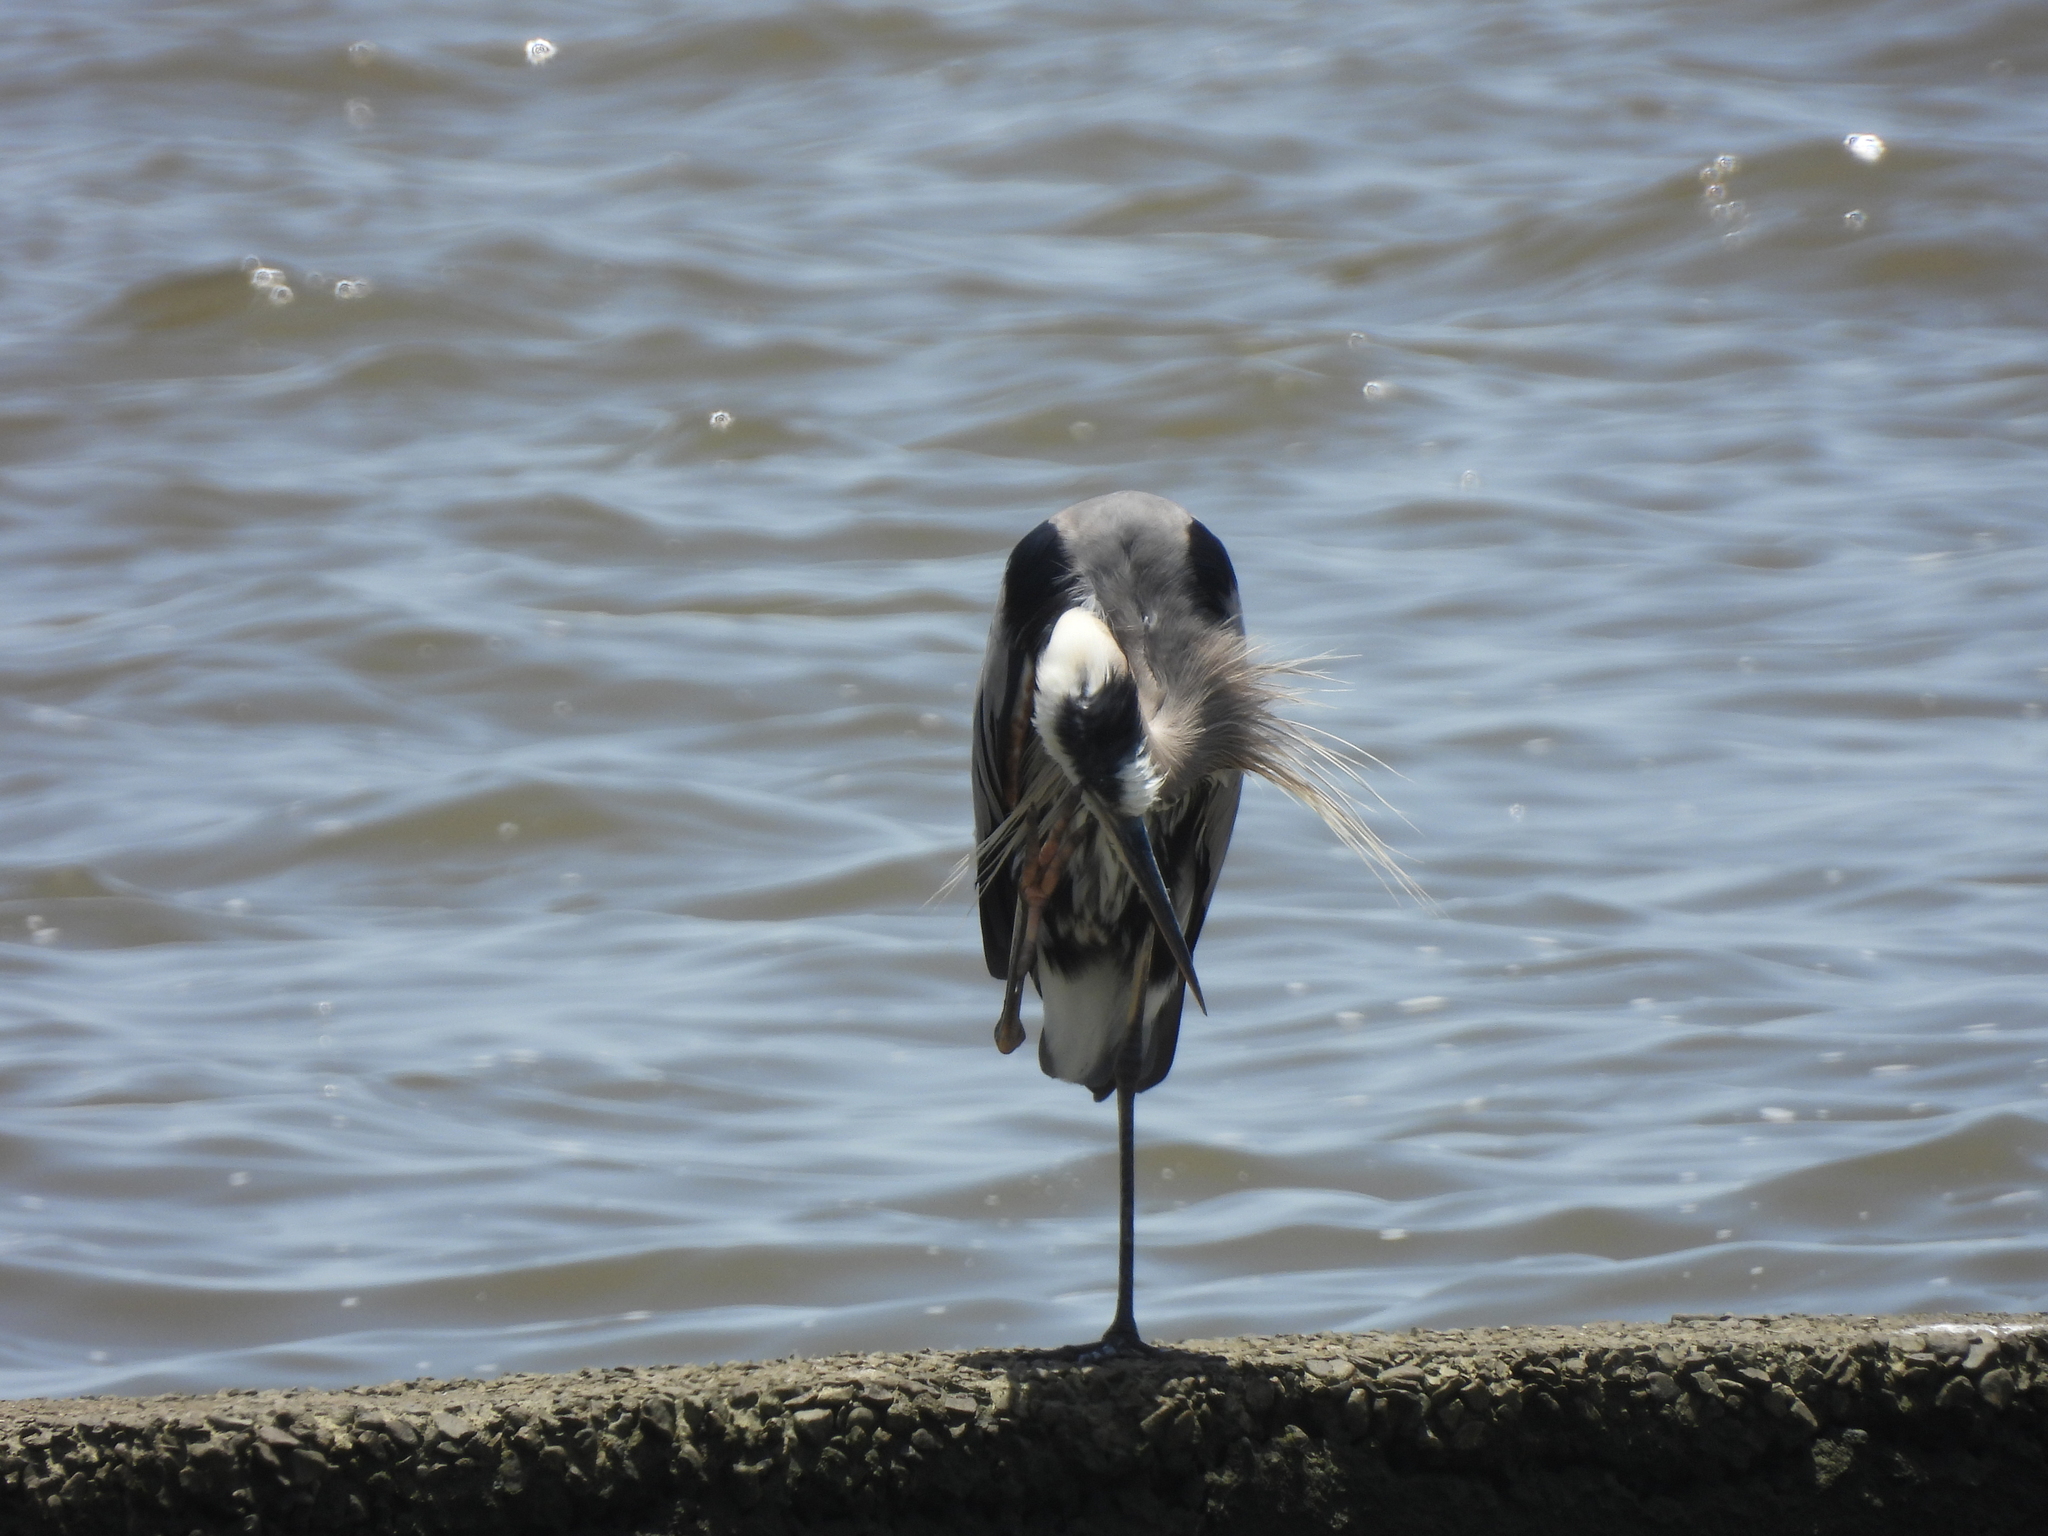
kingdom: Animalia
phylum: Chordata
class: Aves
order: Pelecaniformes
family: Ardeidae
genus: Ardea
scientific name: Ardea herodias
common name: Great blue heron
